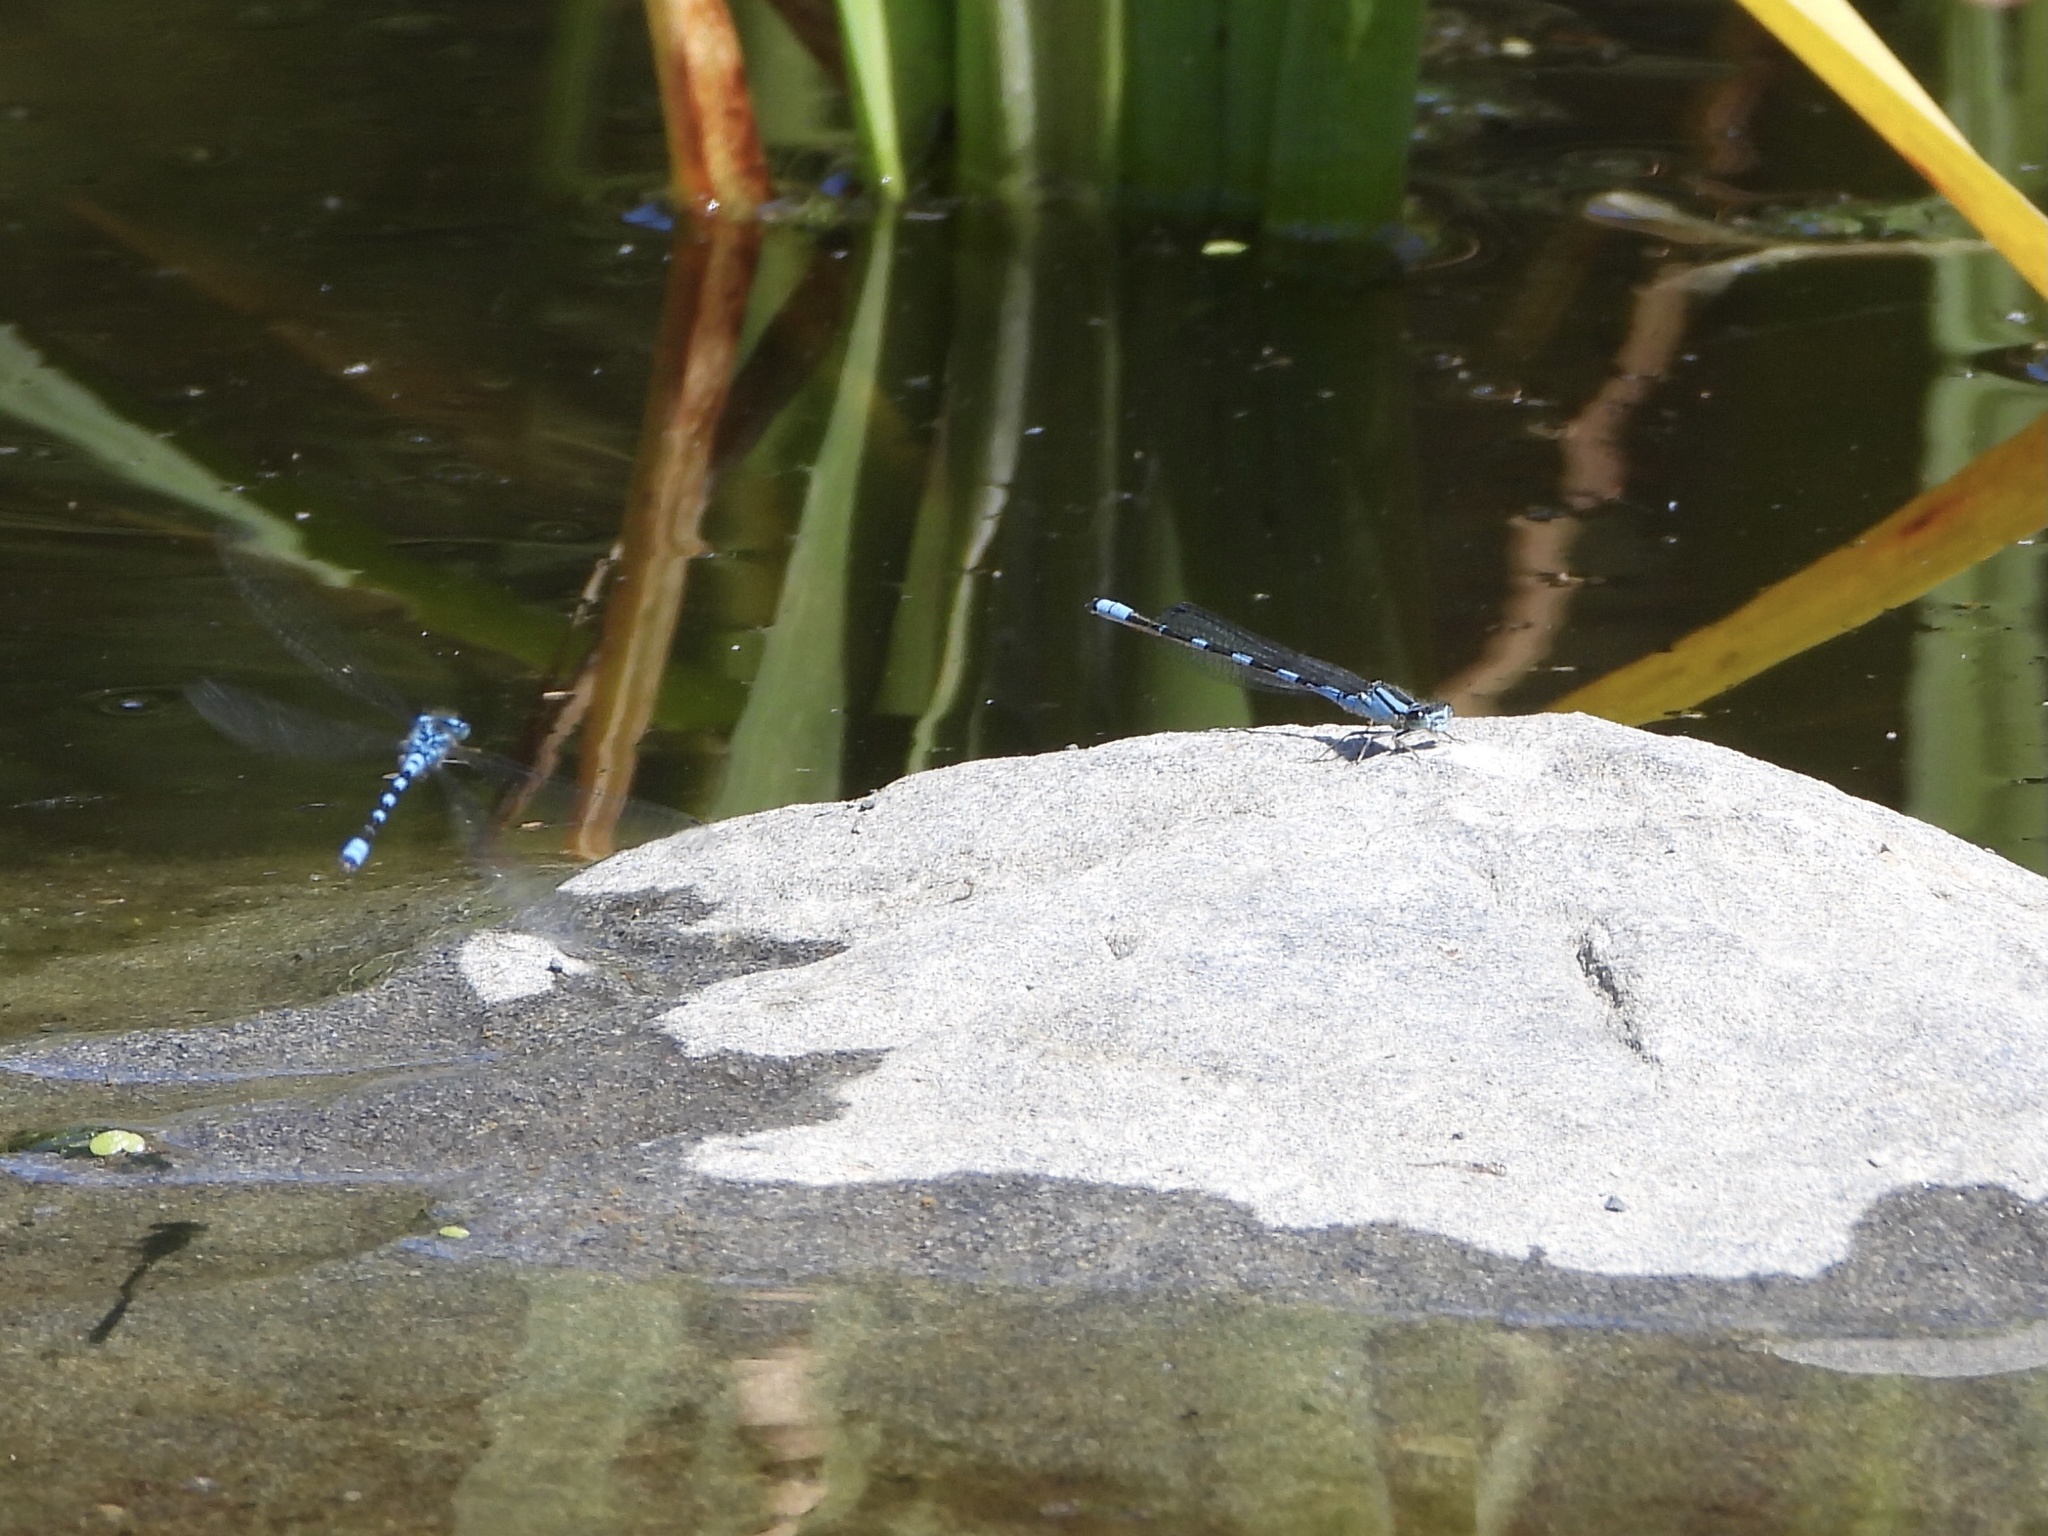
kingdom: Animalia
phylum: Arthropoda
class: Insecta
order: Odonata
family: Coenagrionidae
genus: Enallagma
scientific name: Enallagma carunculatum
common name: Tule bluet
